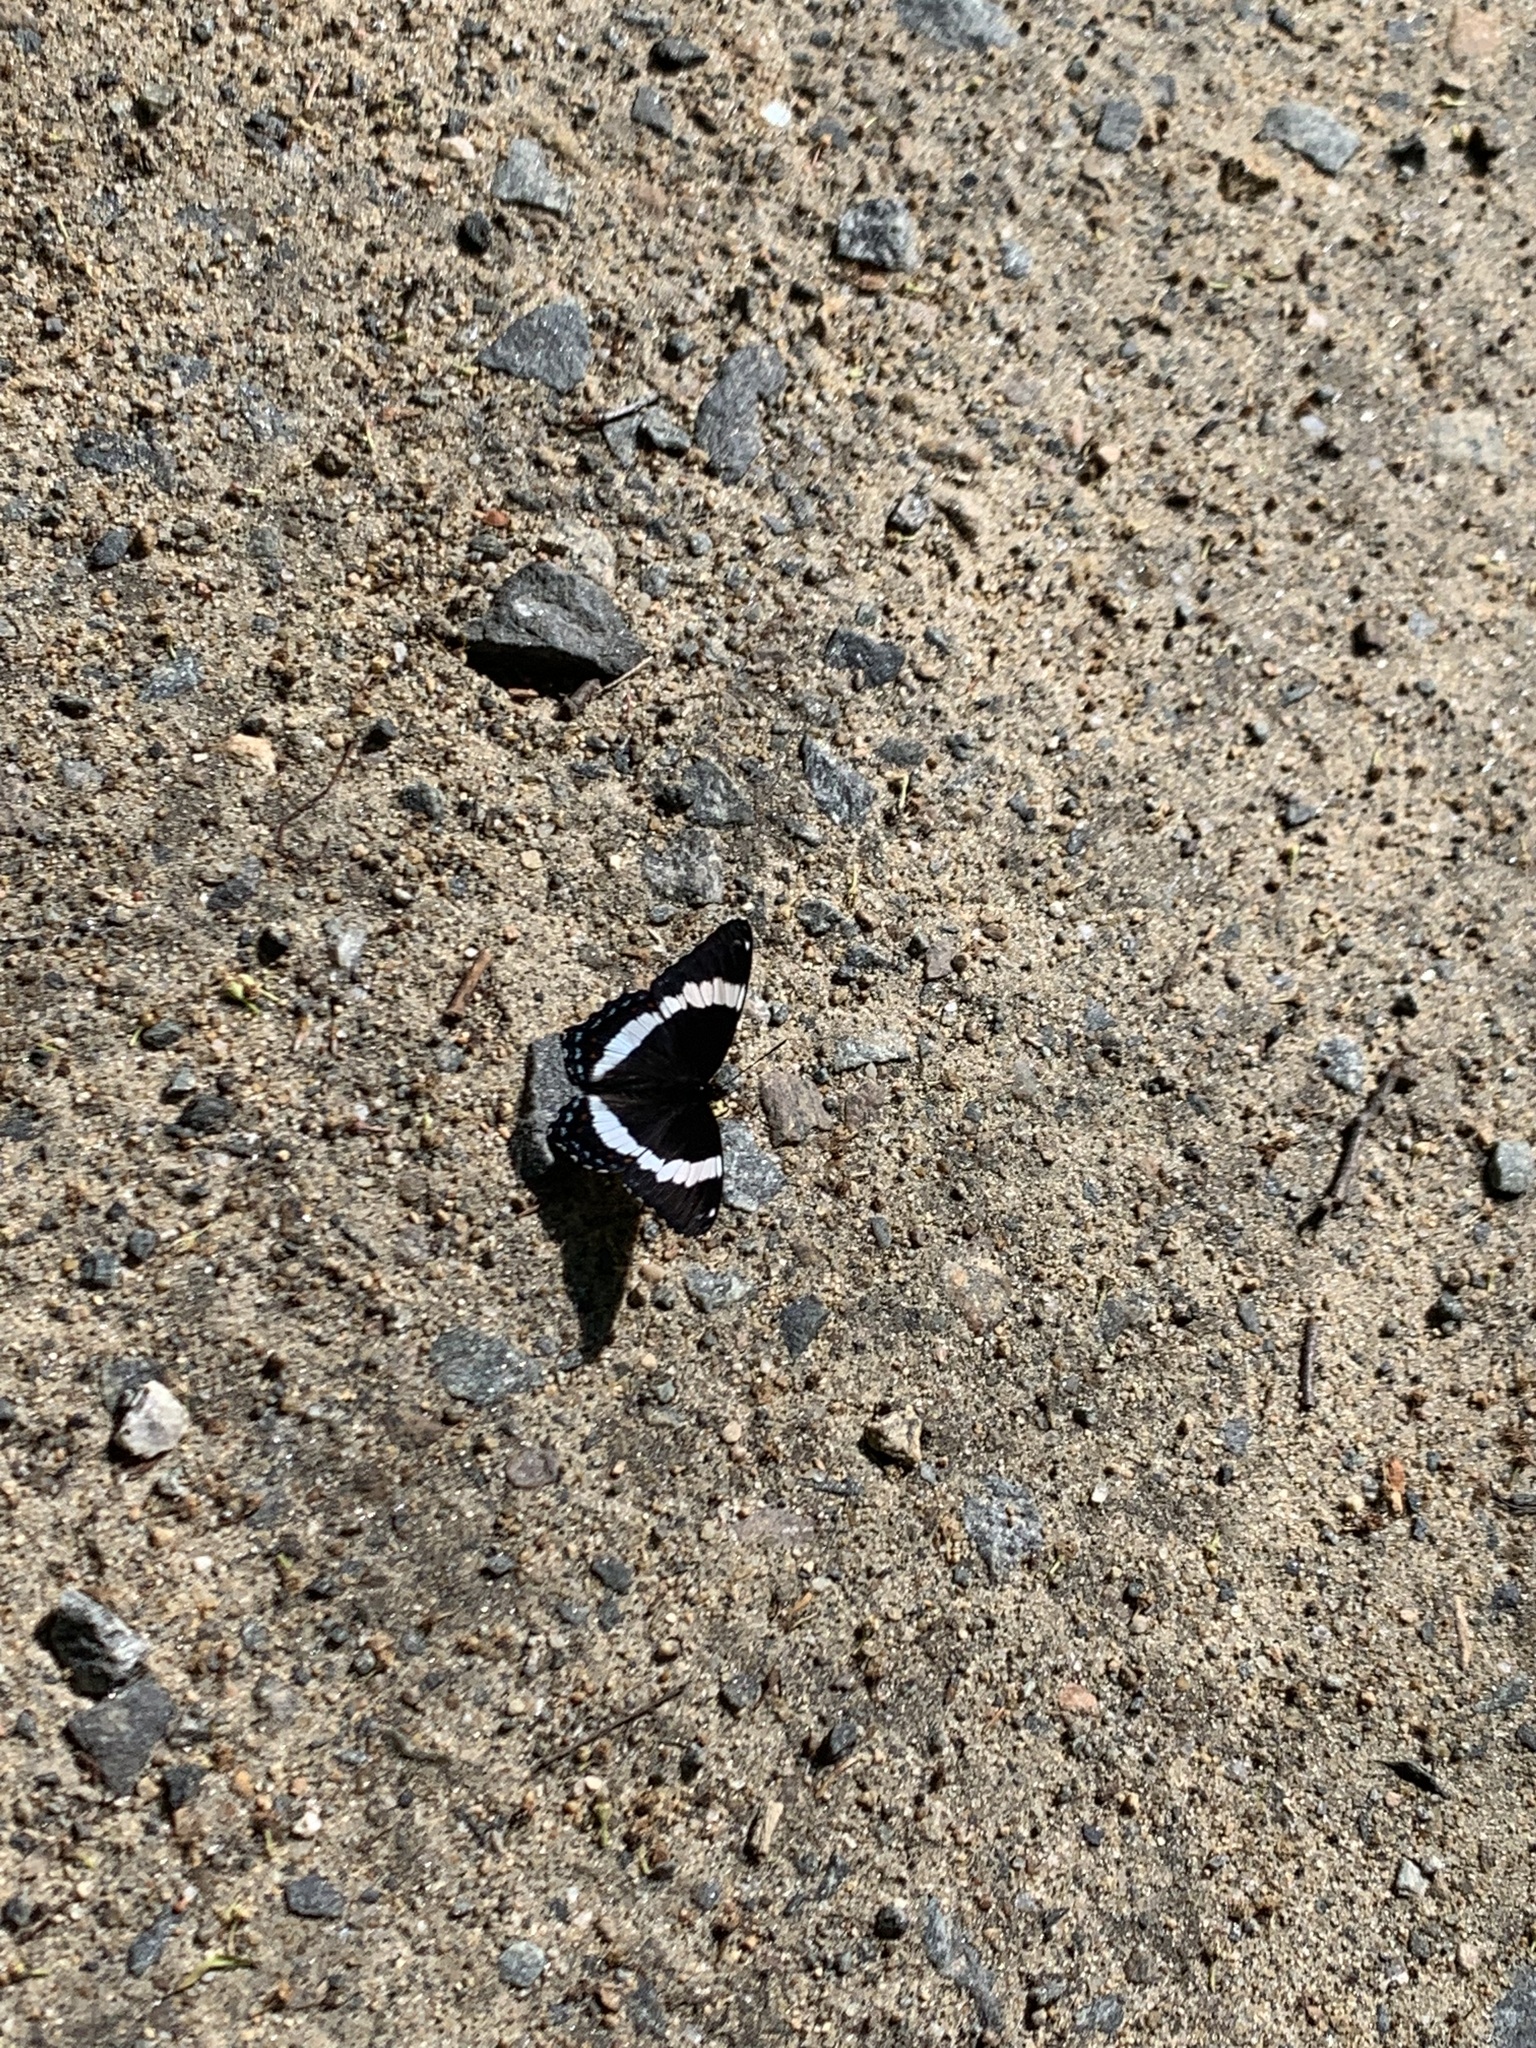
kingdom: Animalia
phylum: Arthropoda
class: Insecta
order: Lepidoptera
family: Nymphalidae
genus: Limenitis
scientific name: Limenitis arthemis
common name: Red-spotted admiral
